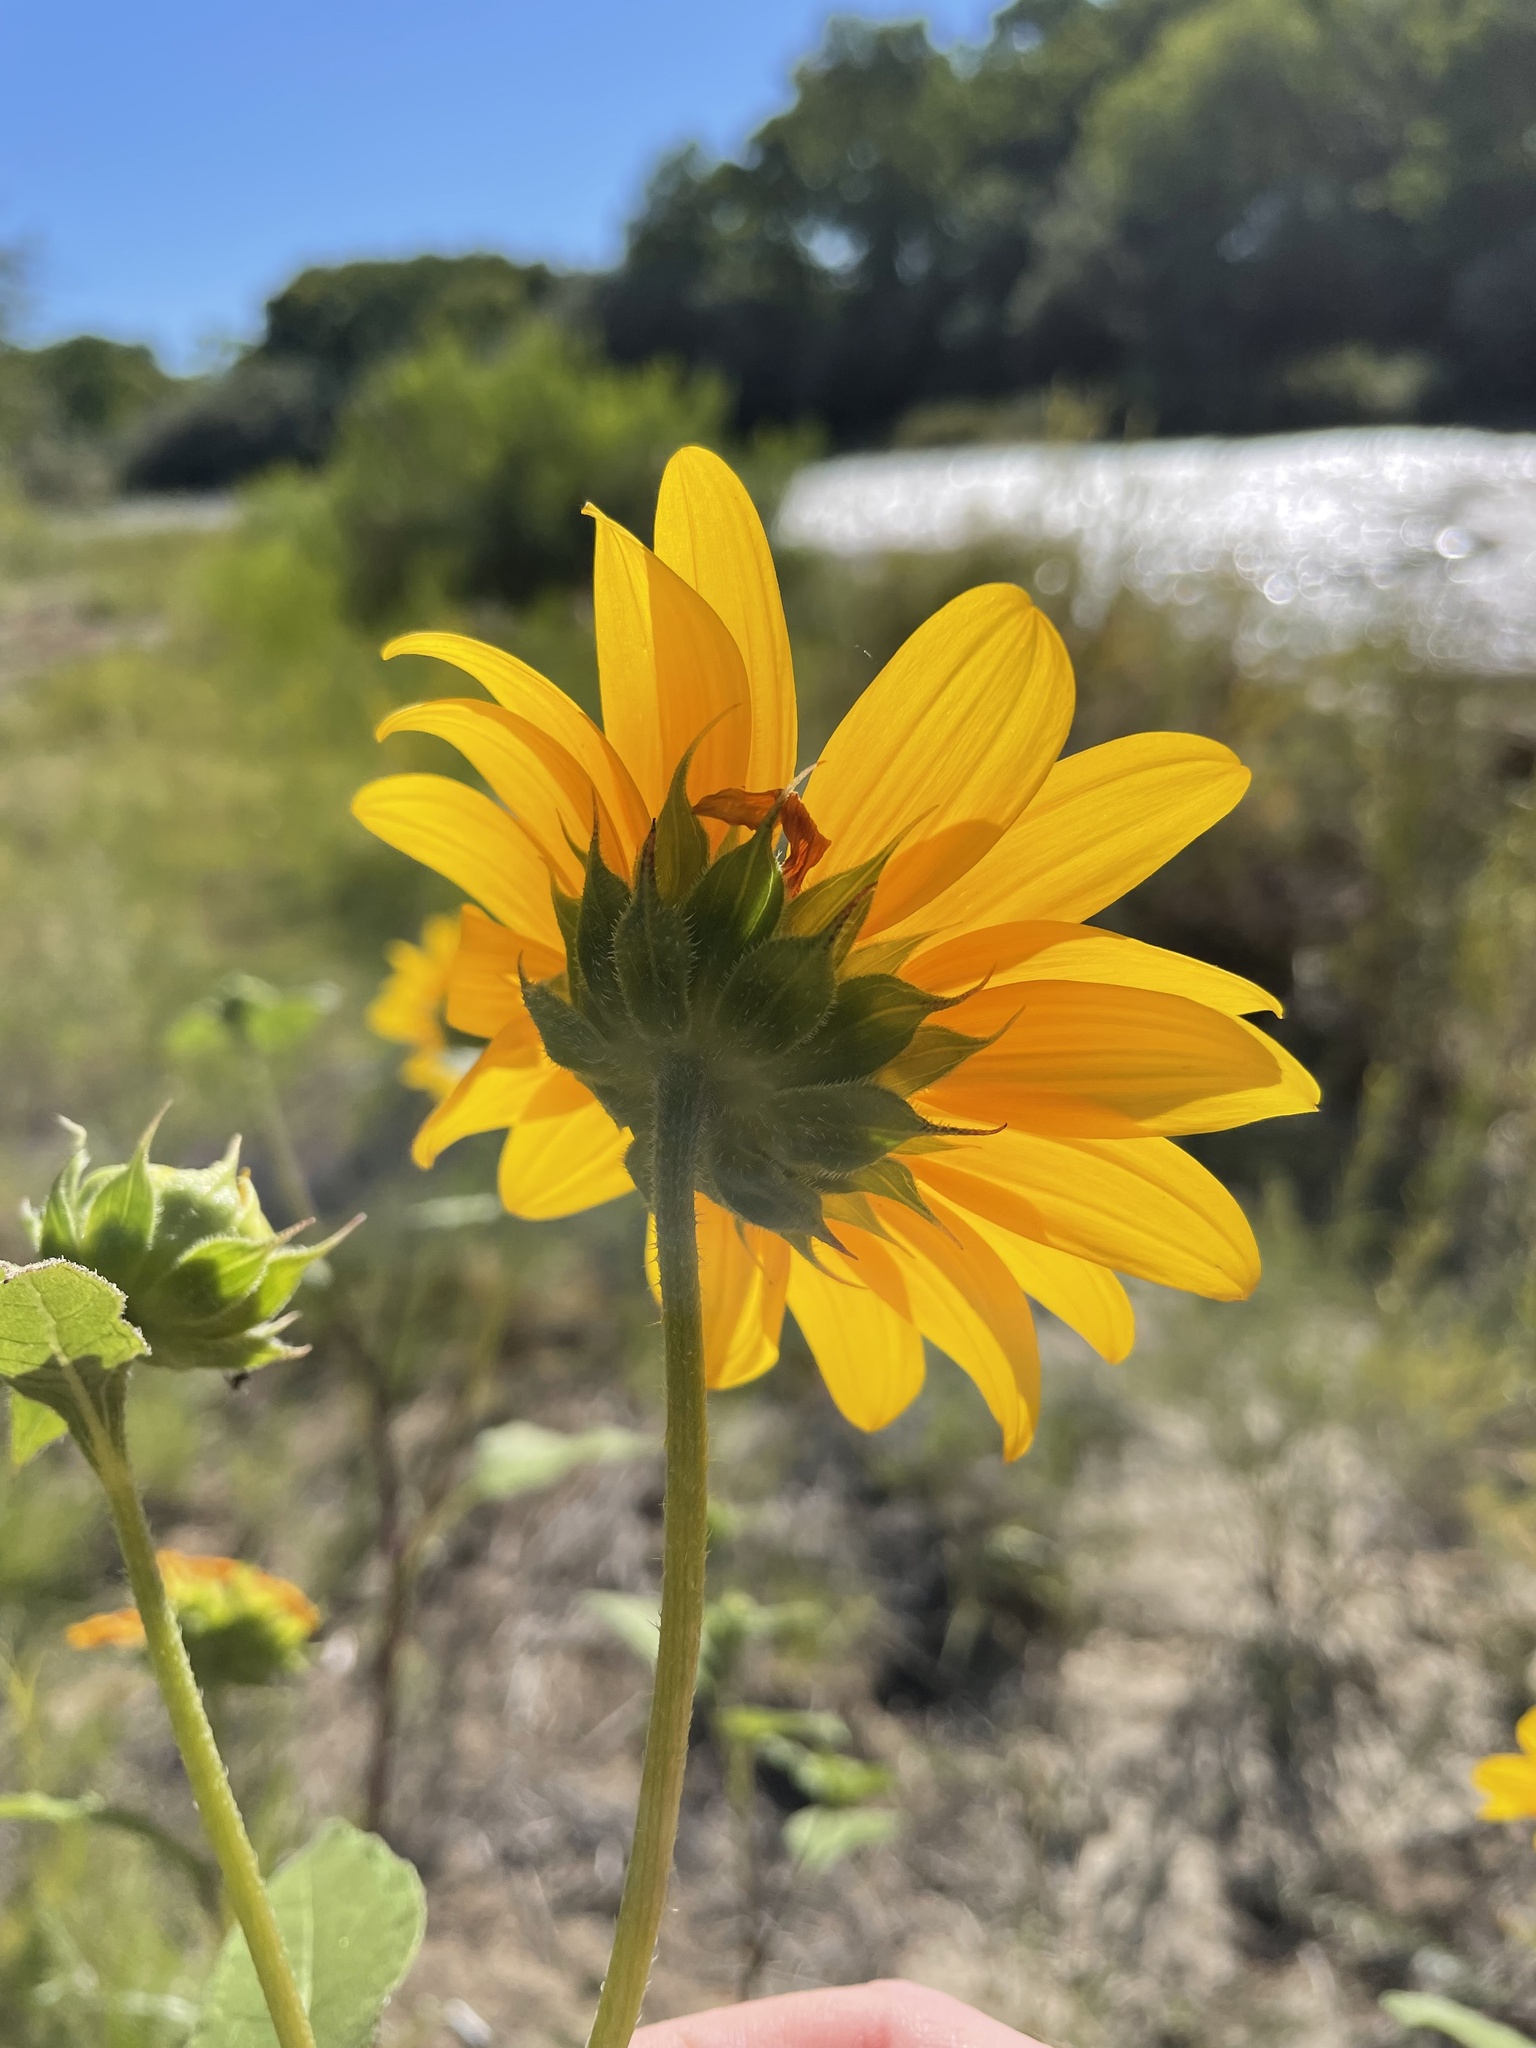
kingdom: Plantae
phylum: Tracheophyta
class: Magnoliopsida
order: Asterales
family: Asteraceae
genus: Helianthus
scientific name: Helianthus annuus
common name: Sunflower
